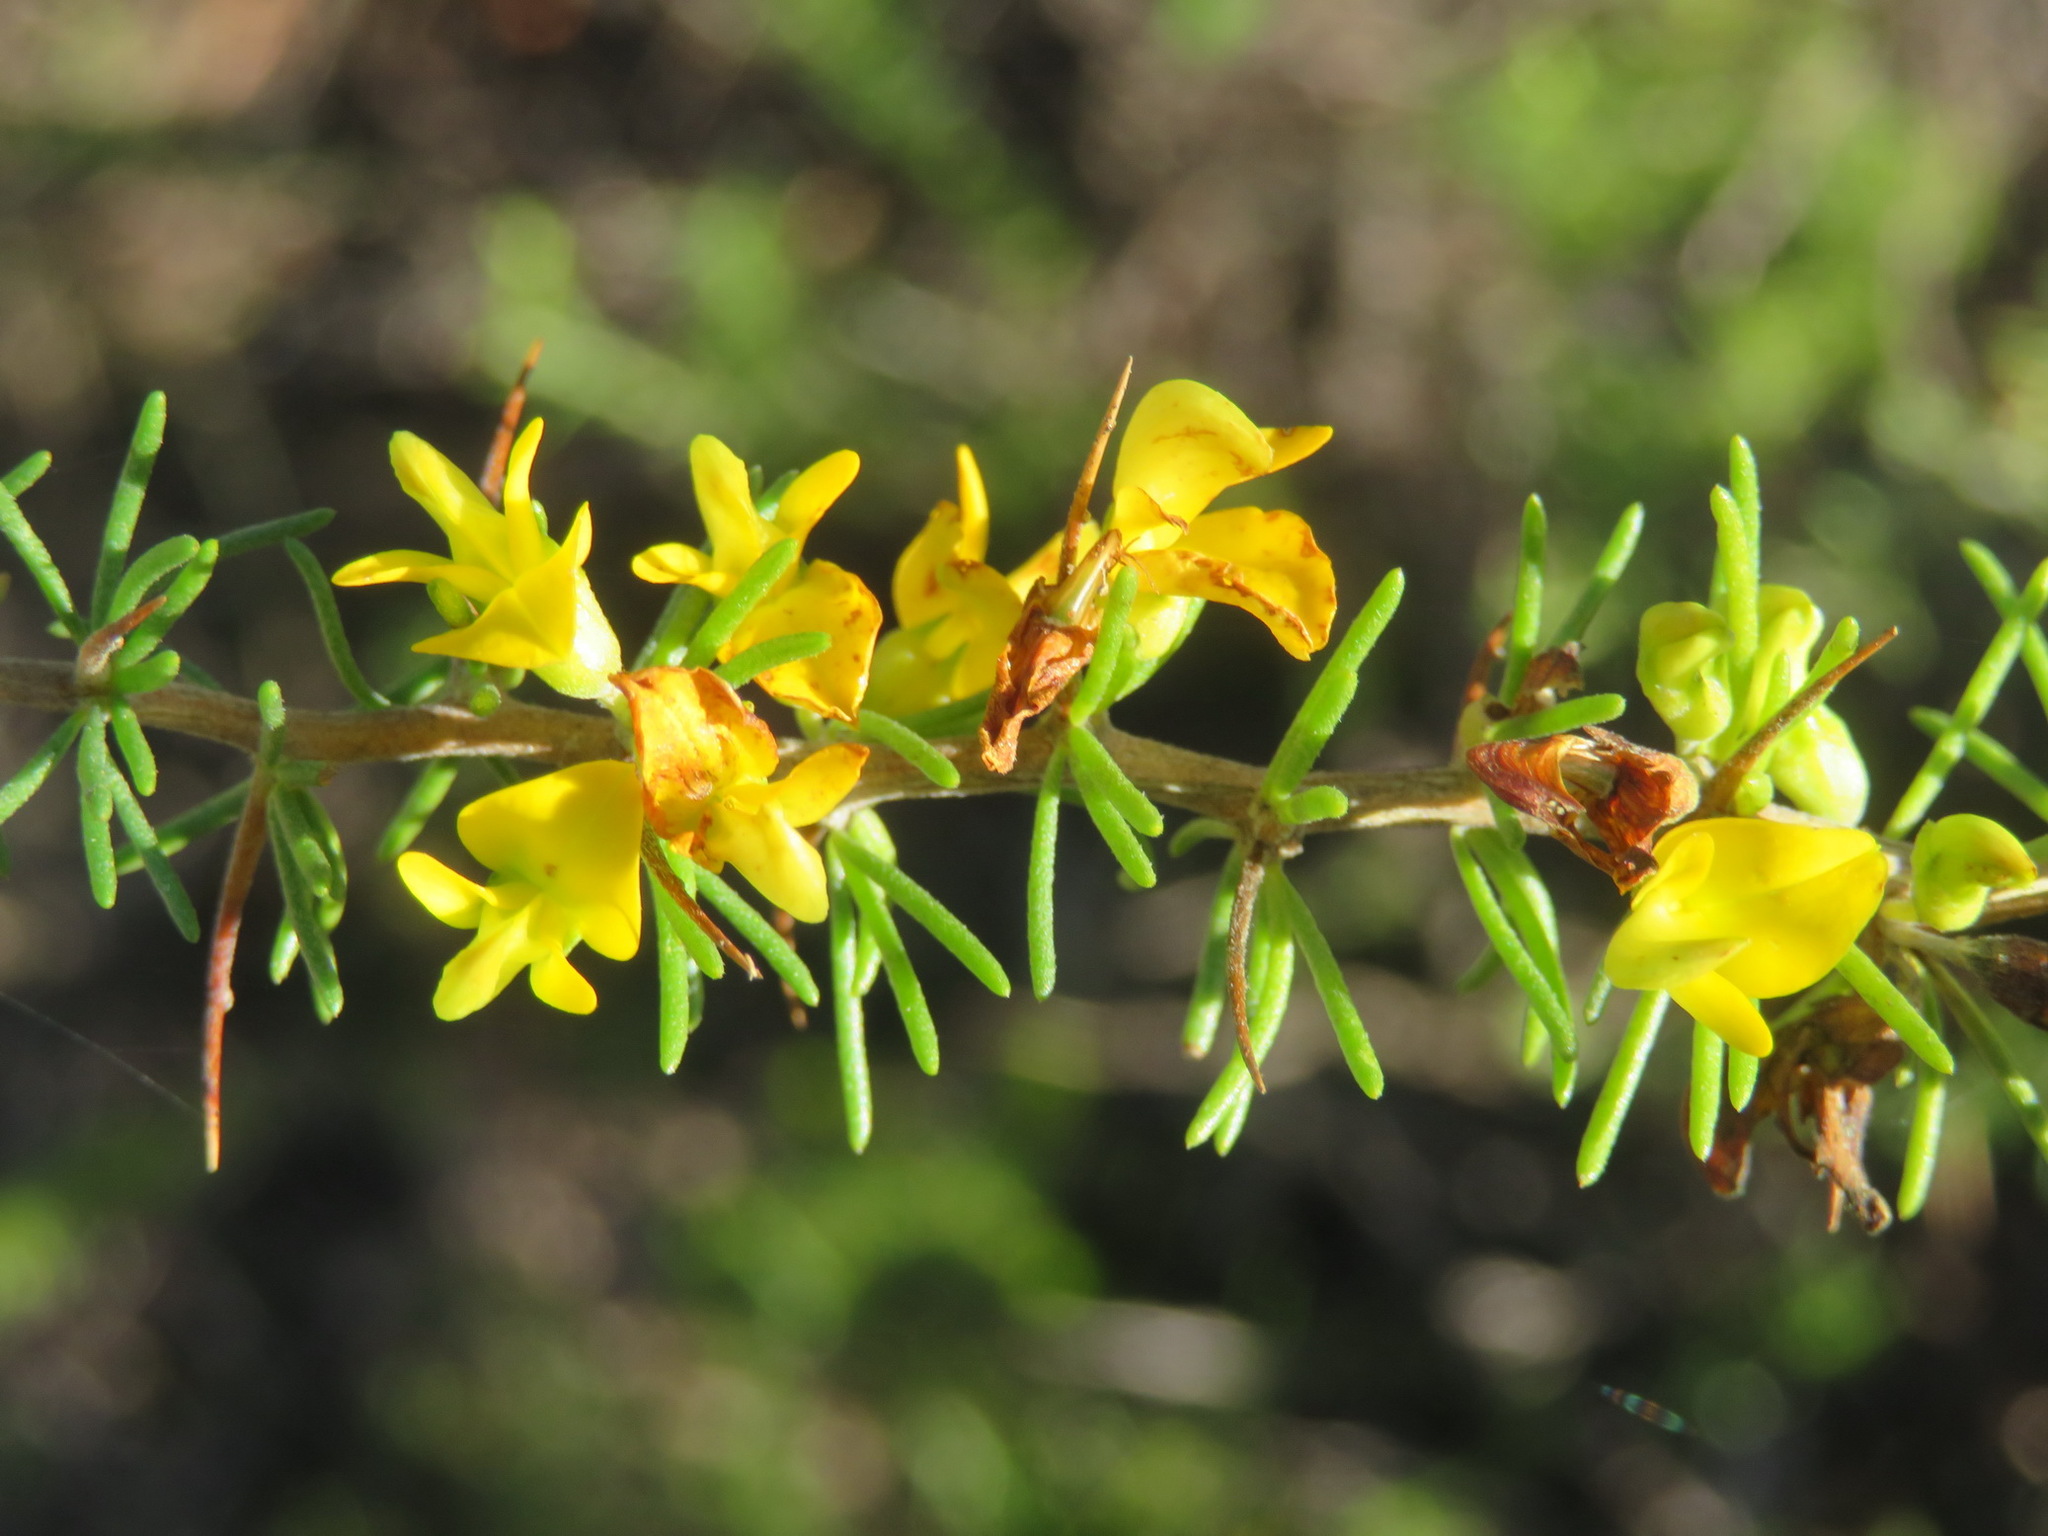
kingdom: Plantae
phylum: Tracheophyta
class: Magnoliopsida
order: Fabales
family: Fabaceae
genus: Aspalathus
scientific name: Aspalathus spinosa
